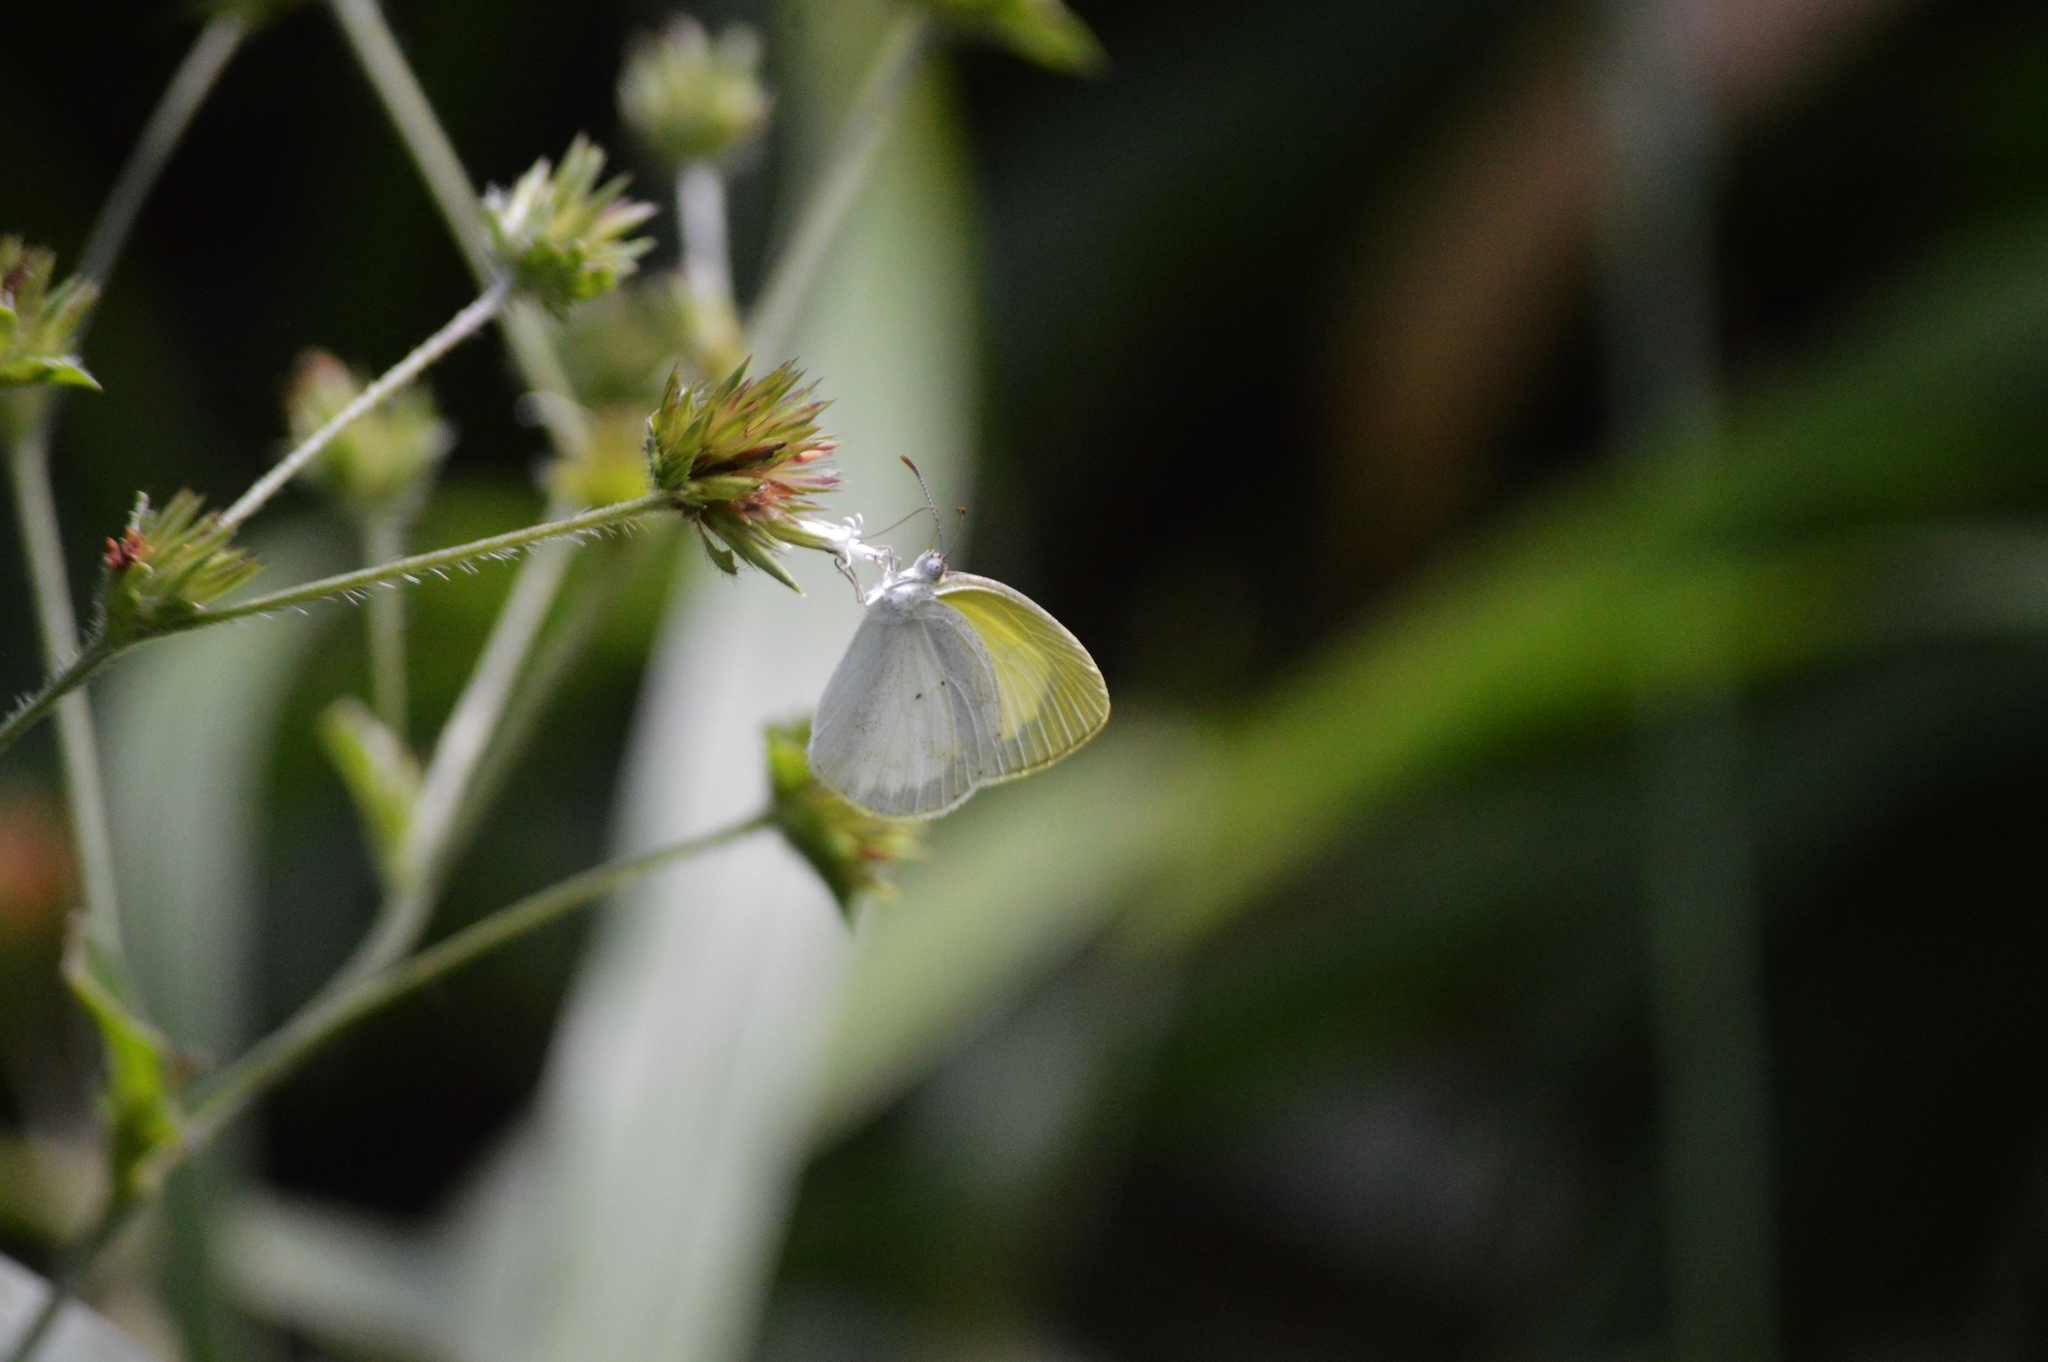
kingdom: Animalia
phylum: Arthropoda
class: Insecta
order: Lepidoptera
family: Pieridae
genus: Eurema
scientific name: Eurema elathea
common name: Banded yellow
